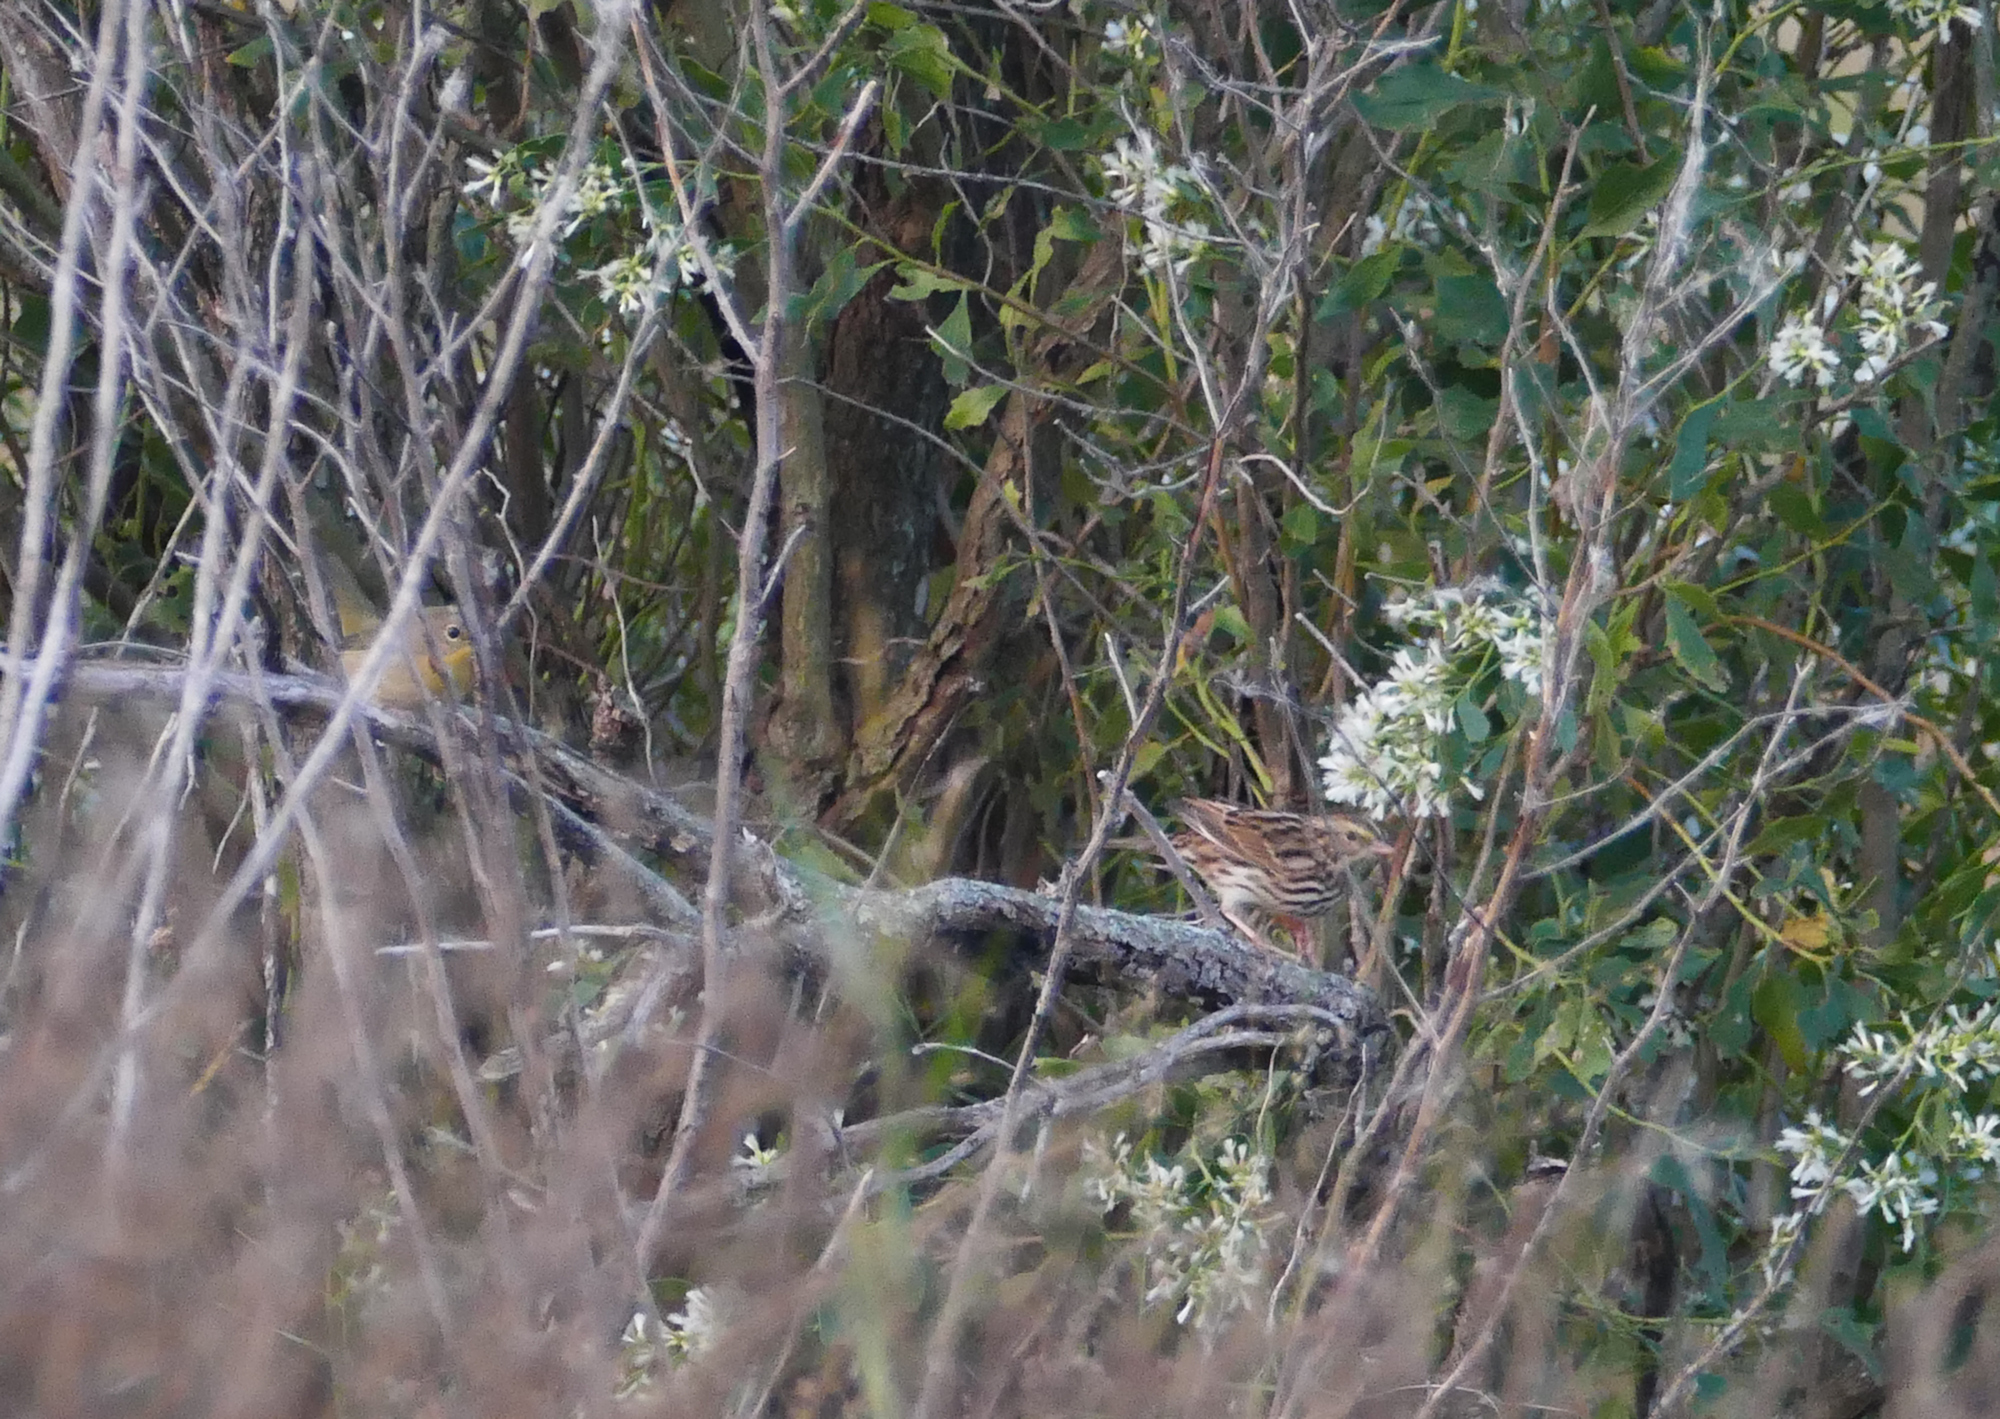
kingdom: Animalia
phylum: Chordata
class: Aves
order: Passeriformes
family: Passerellidae
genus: Passerculus
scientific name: Passerculus sandwichensis
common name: Savannah sparrow
